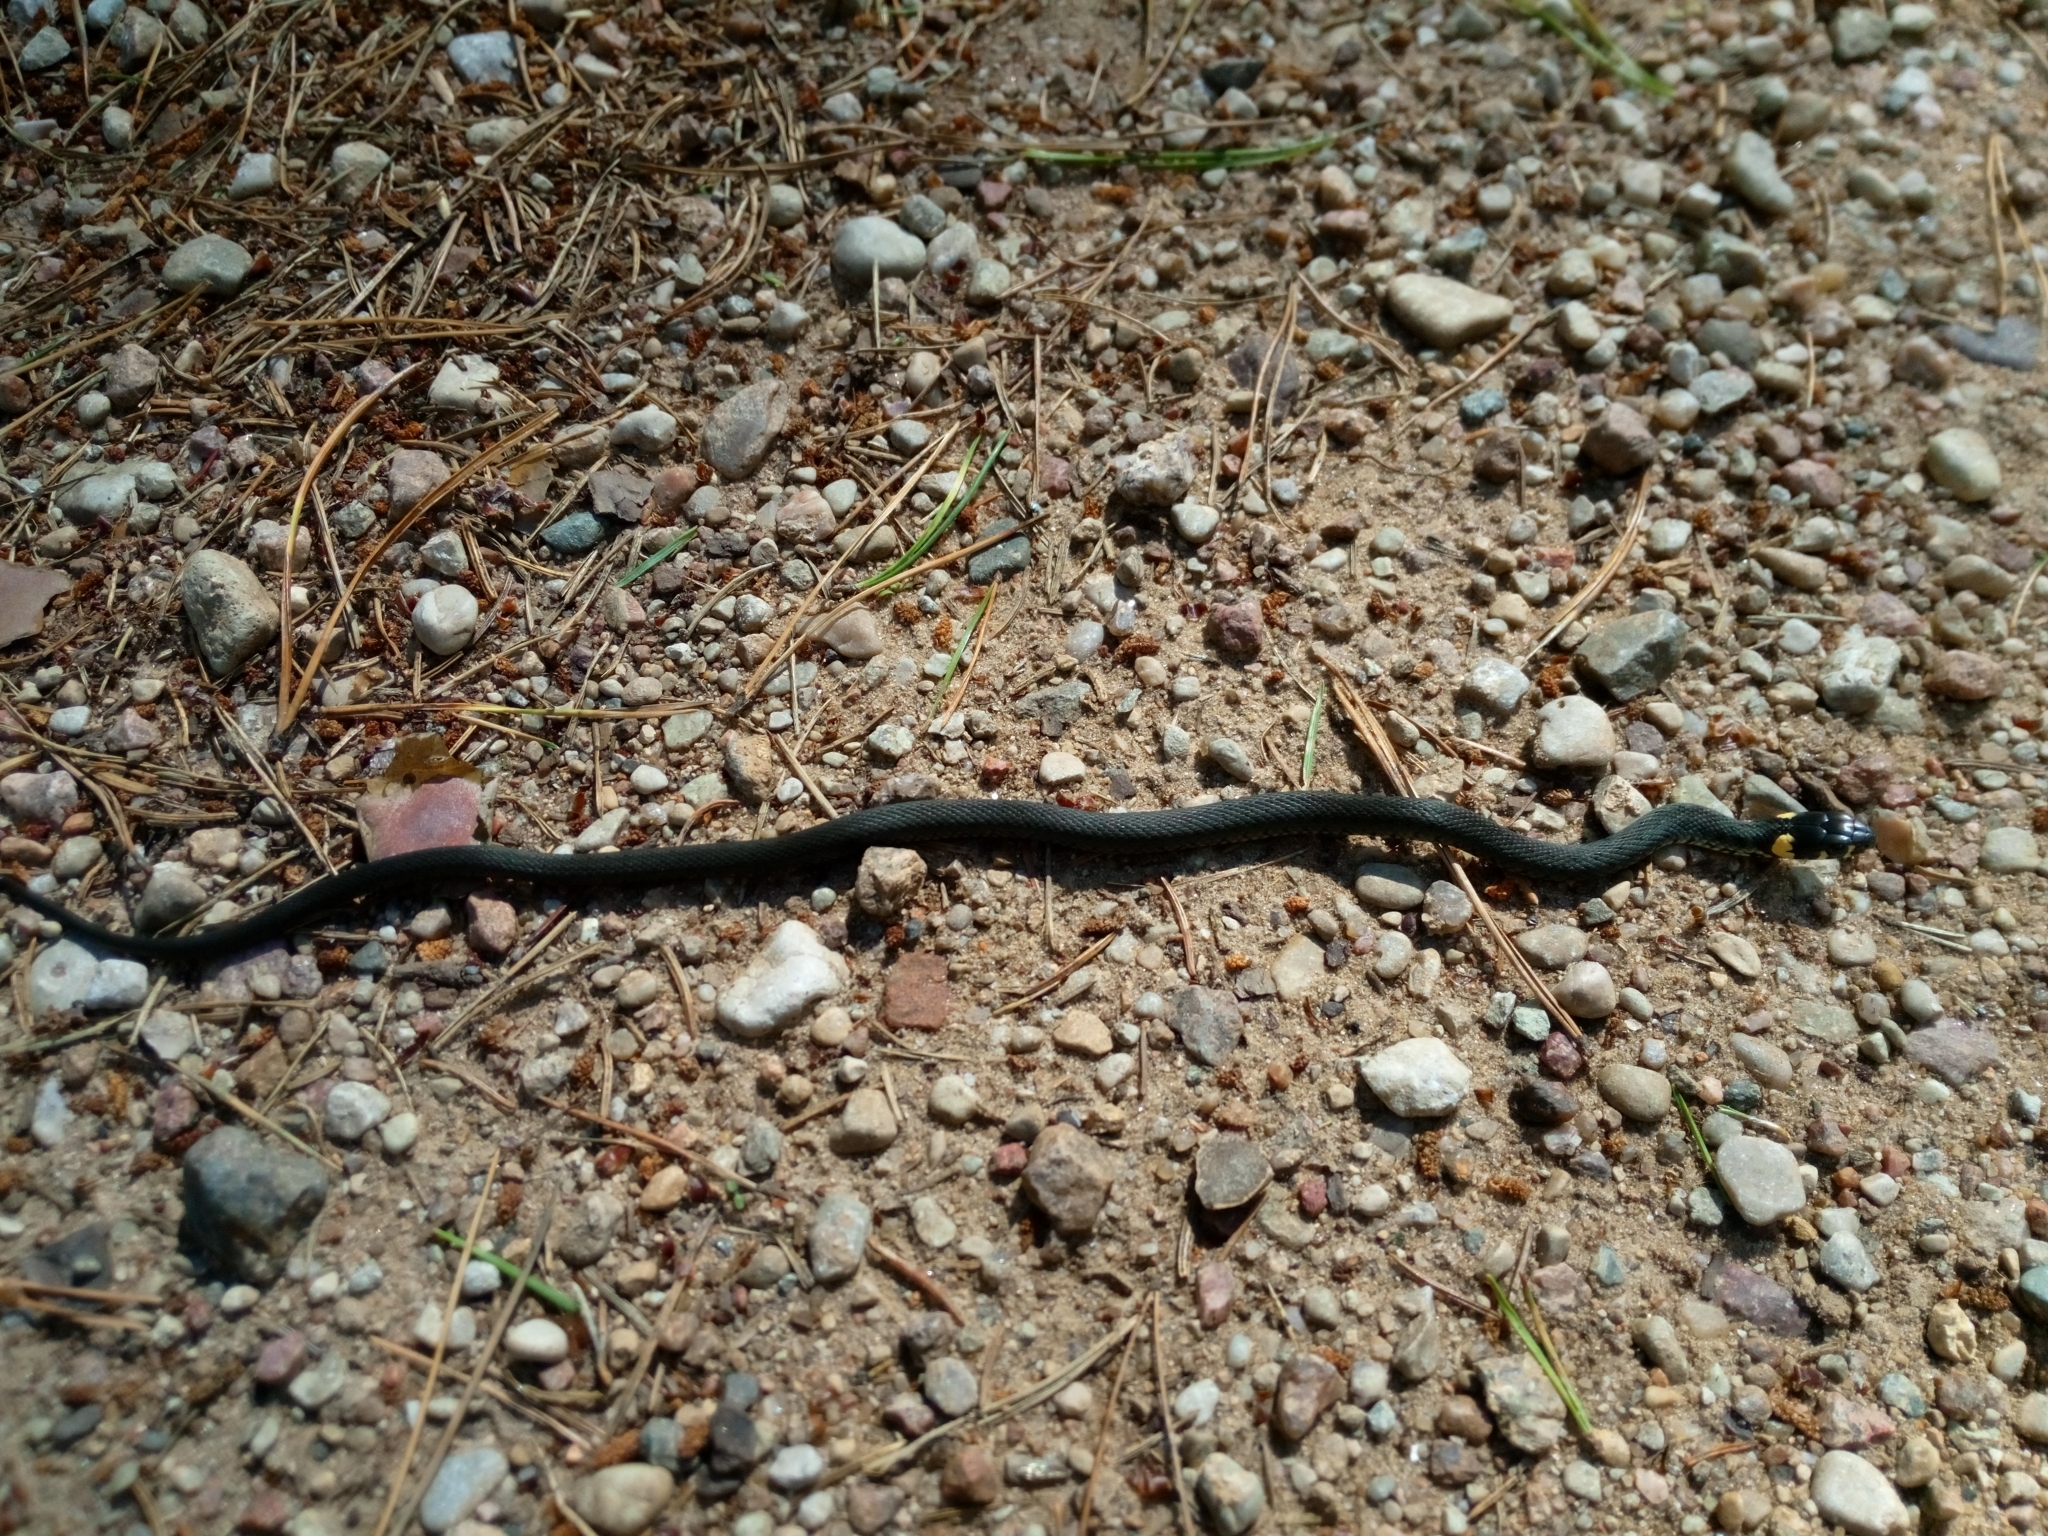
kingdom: Animalia
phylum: Chordata
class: Squamata
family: Colubridae
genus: Natrix
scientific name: Natrix natrix
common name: Grass snake
